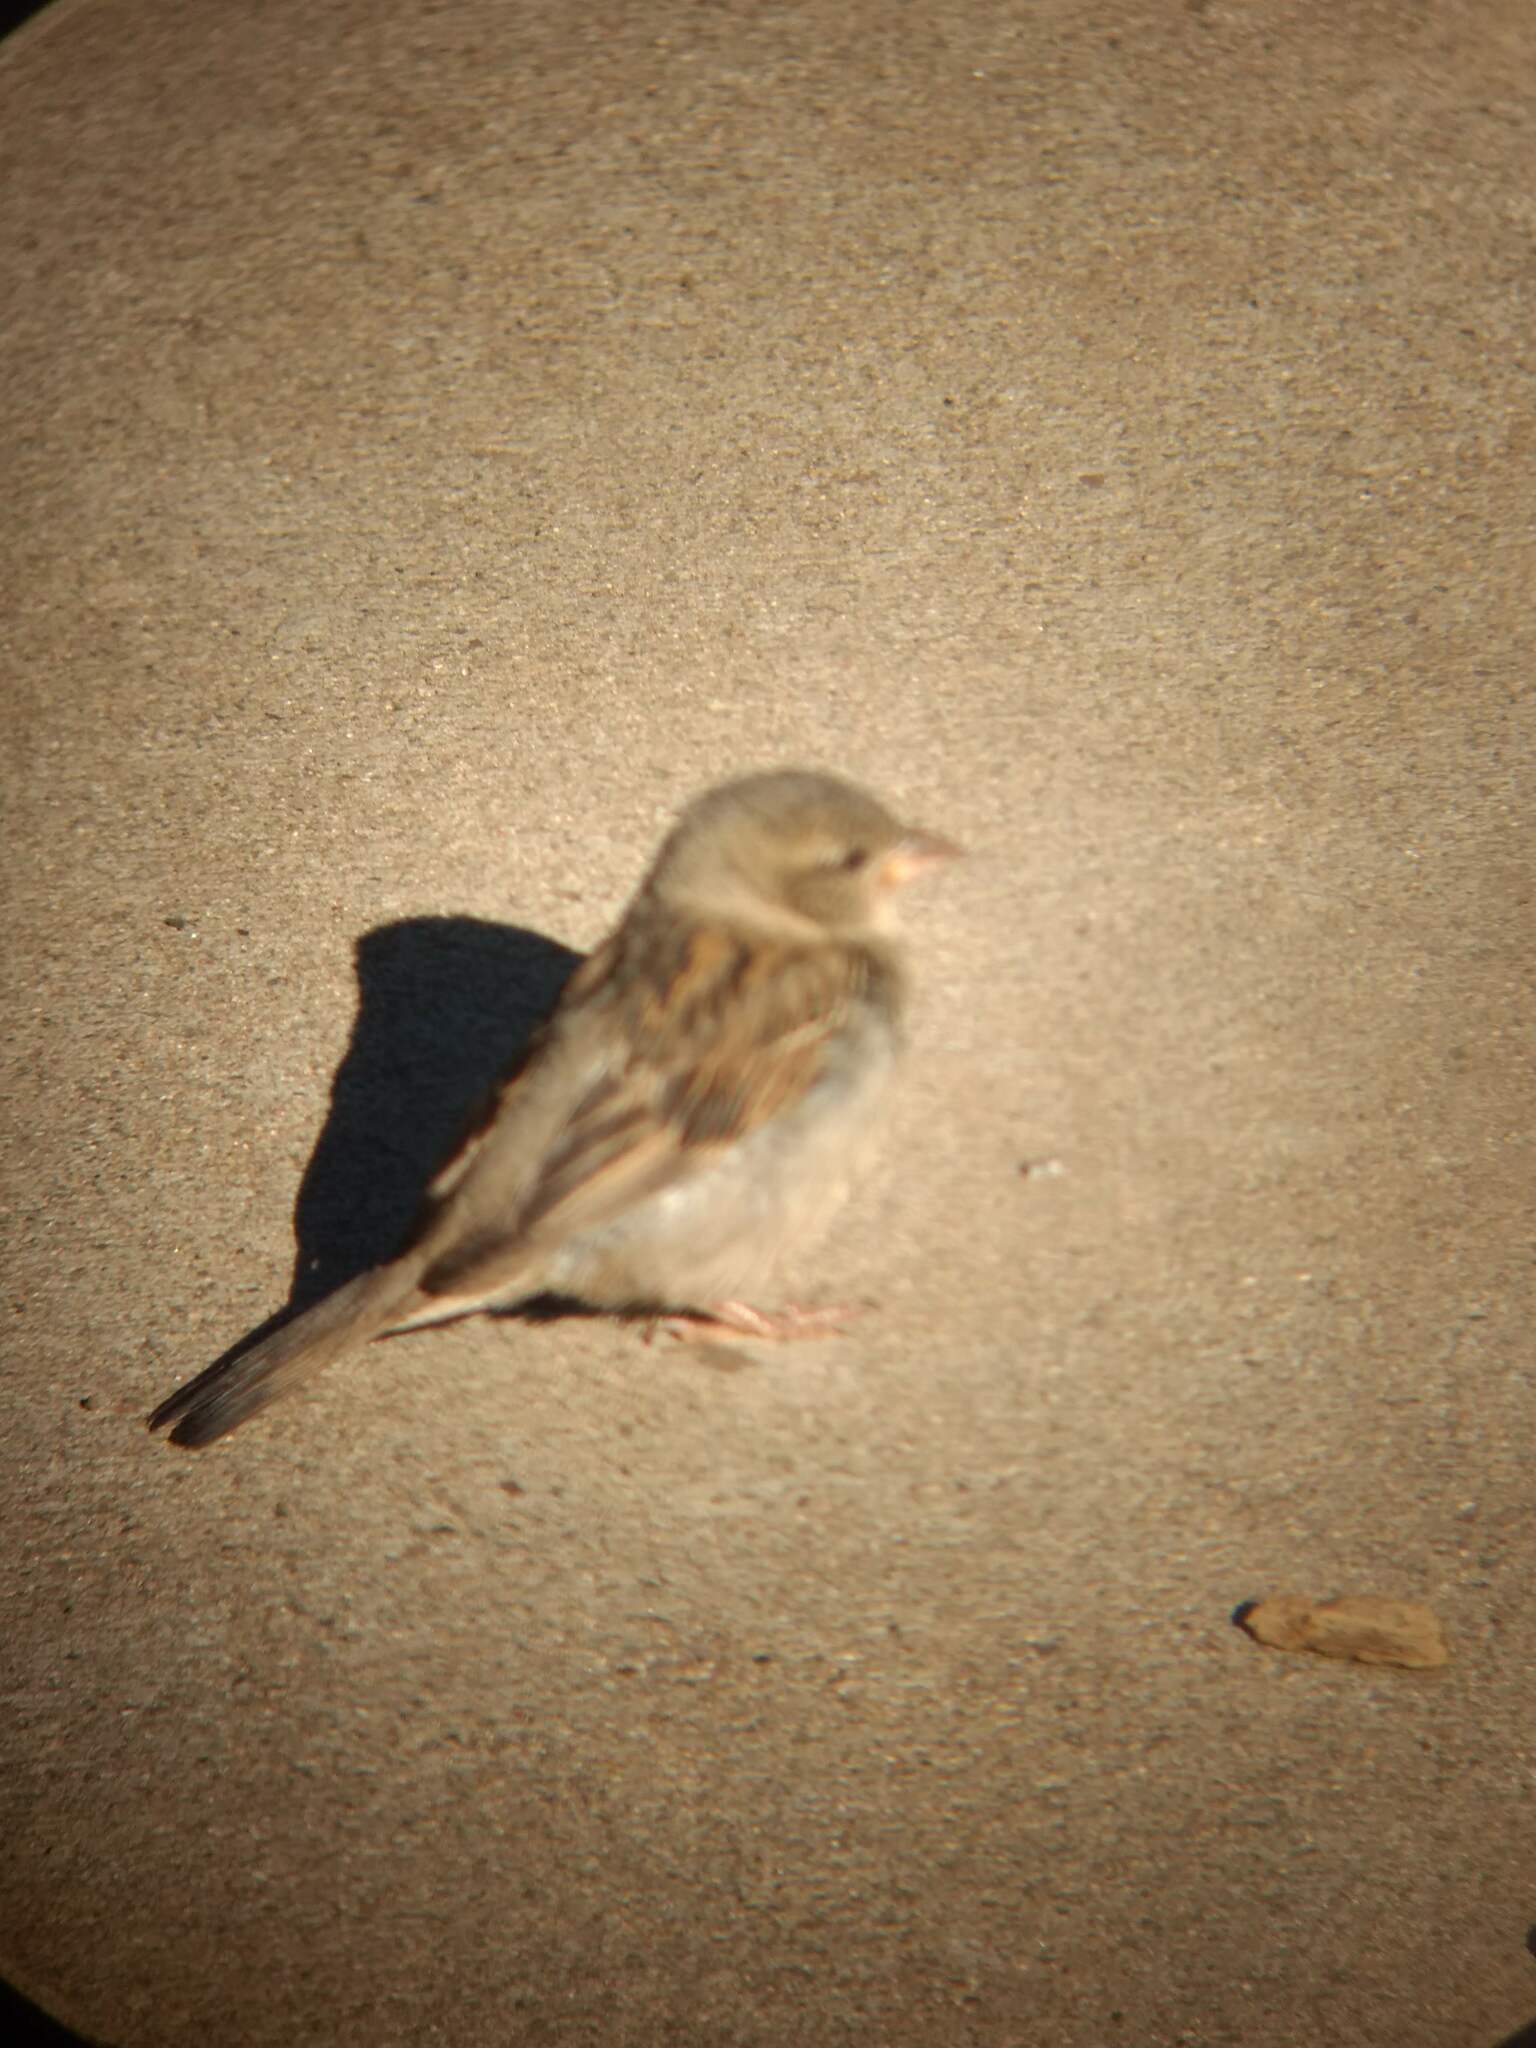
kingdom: Animalia
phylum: Chordata
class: Aves
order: Passeriformes
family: Passeridae
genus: Passer
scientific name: Passer domesticus
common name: House sparrow
